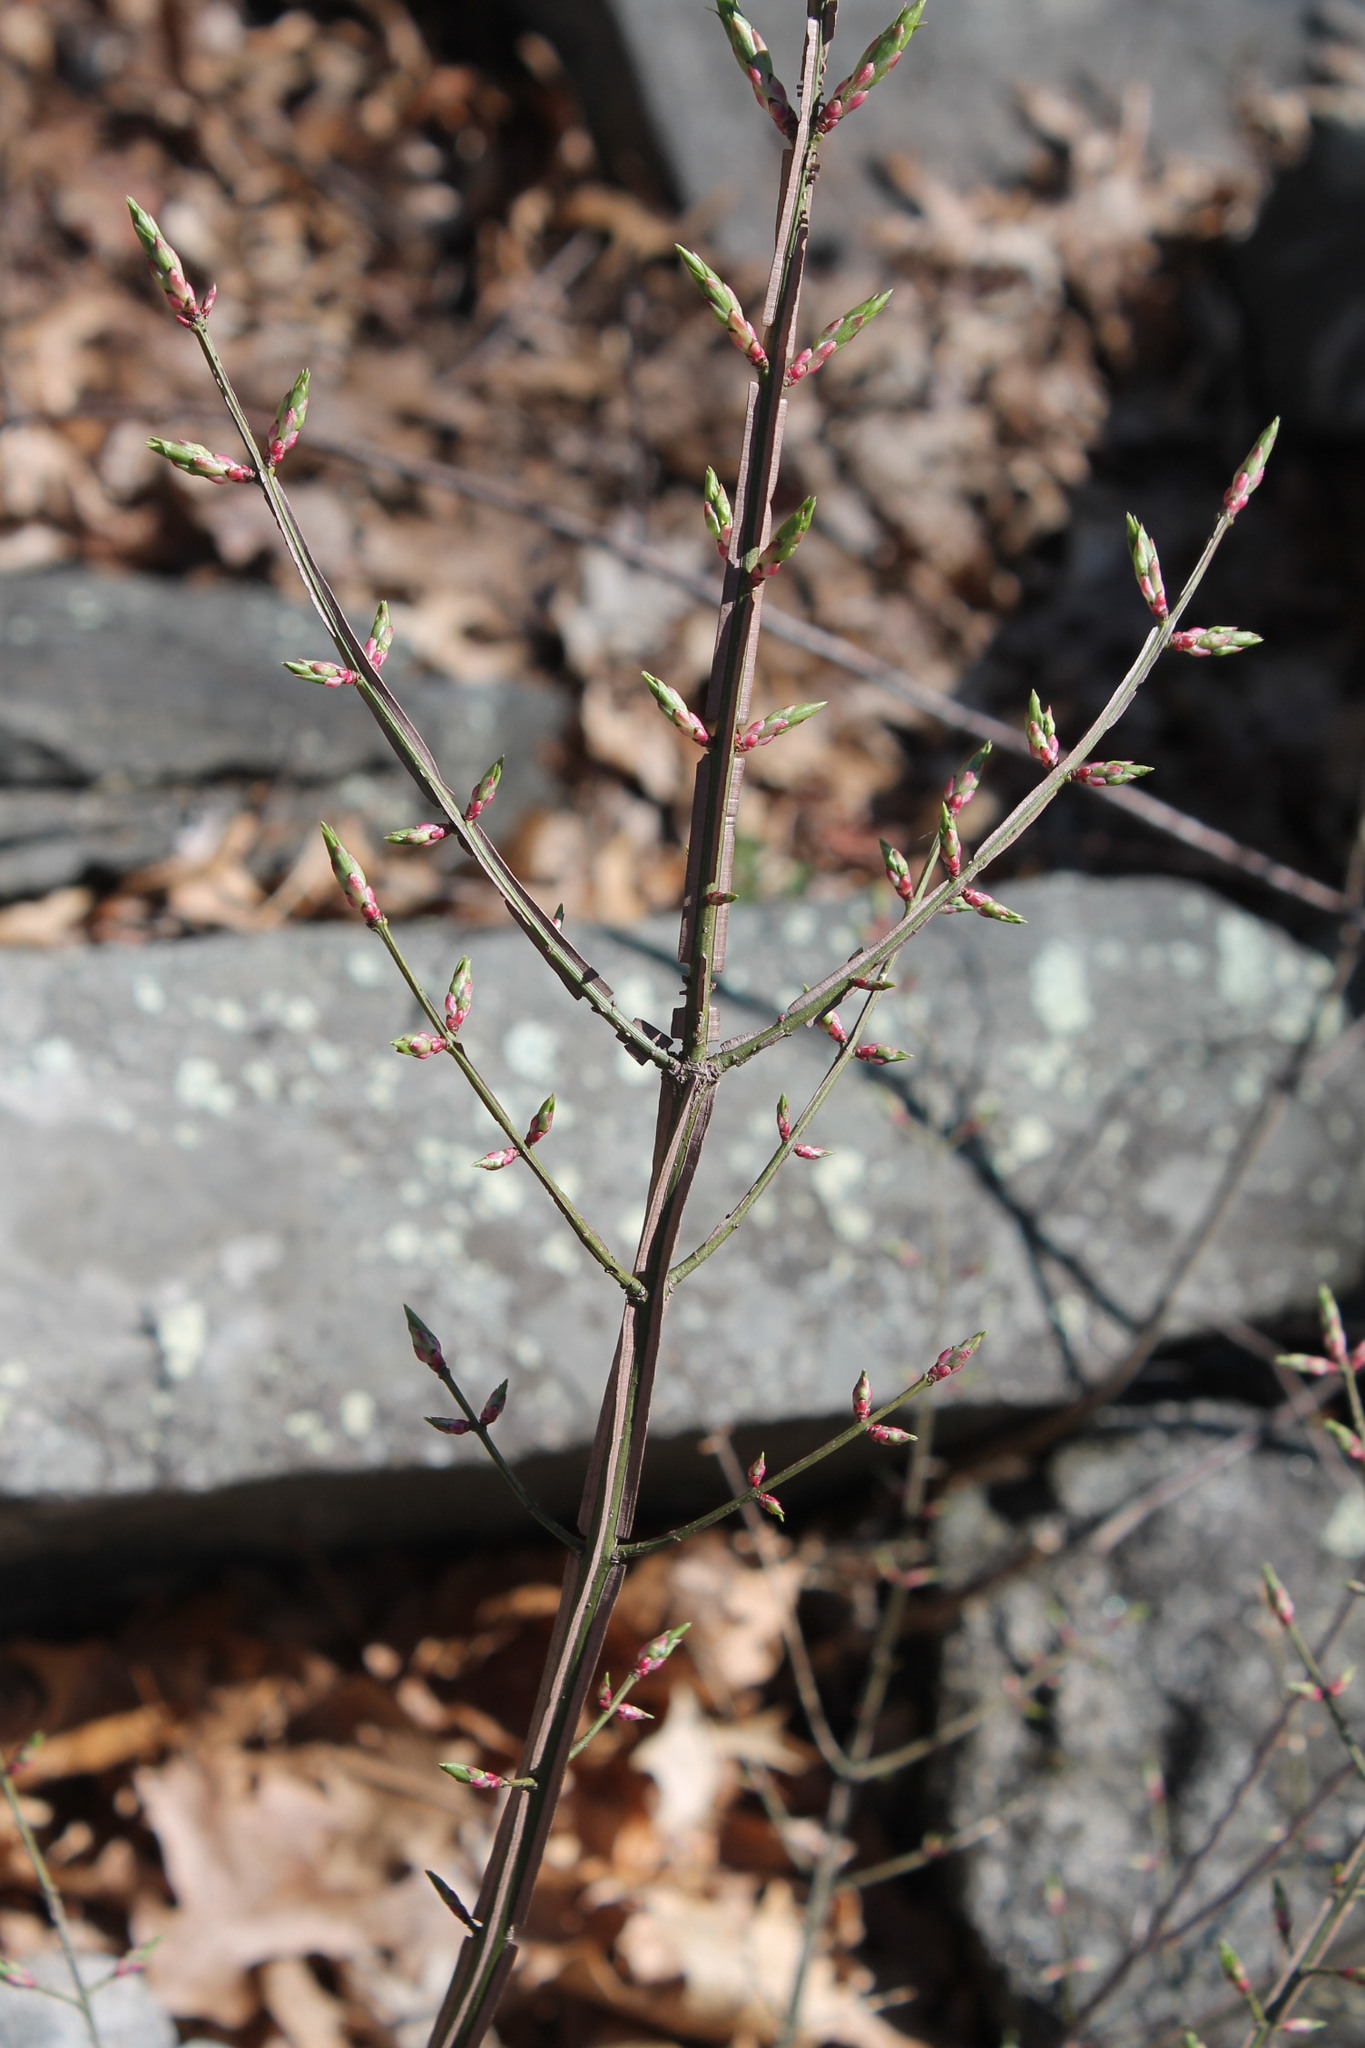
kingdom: Plantae
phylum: Tracheophyta
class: Magnoliopsida
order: Celastrales
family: Celastraceae
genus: Euonymus
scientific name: Euonymus alatus
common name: Winged euonymus
